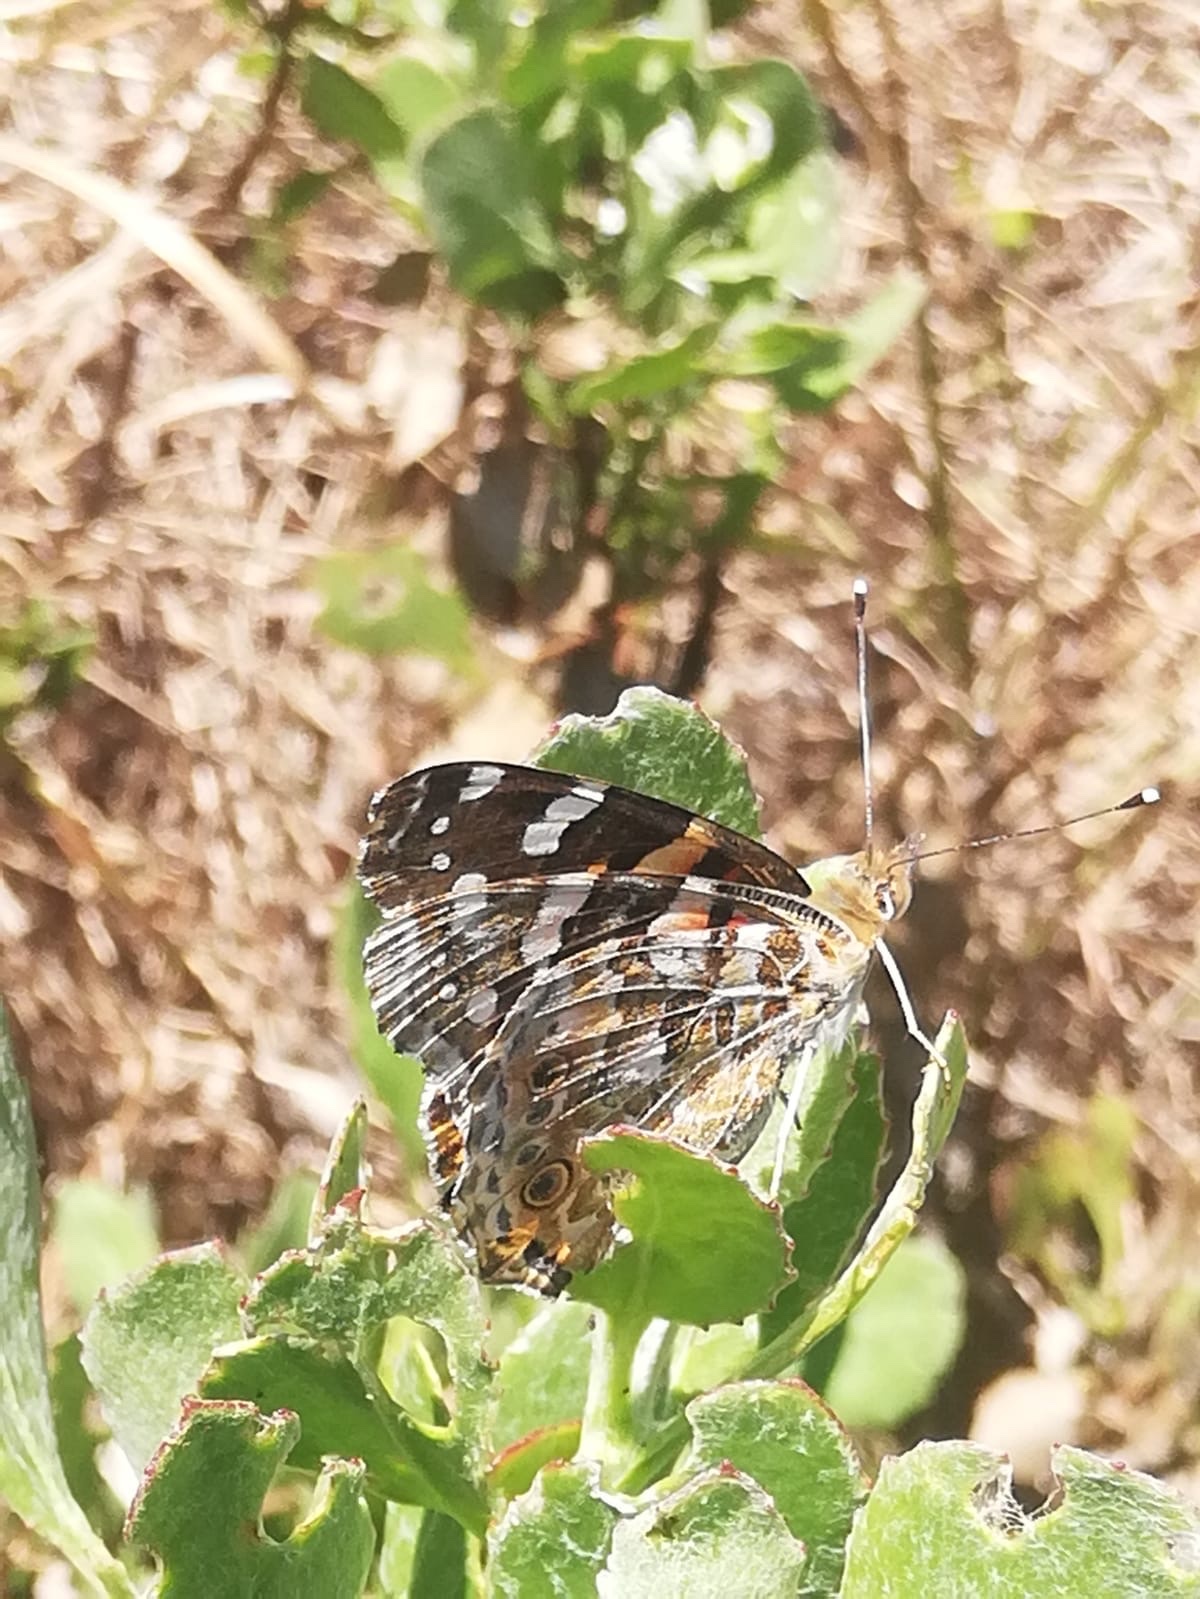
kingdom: Animalia
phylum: Arthropoda
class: Insecta
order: Lepidoptera
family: Nymphalidae
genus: Vanessa
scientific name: Vanessa cardui
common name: Painted lady
